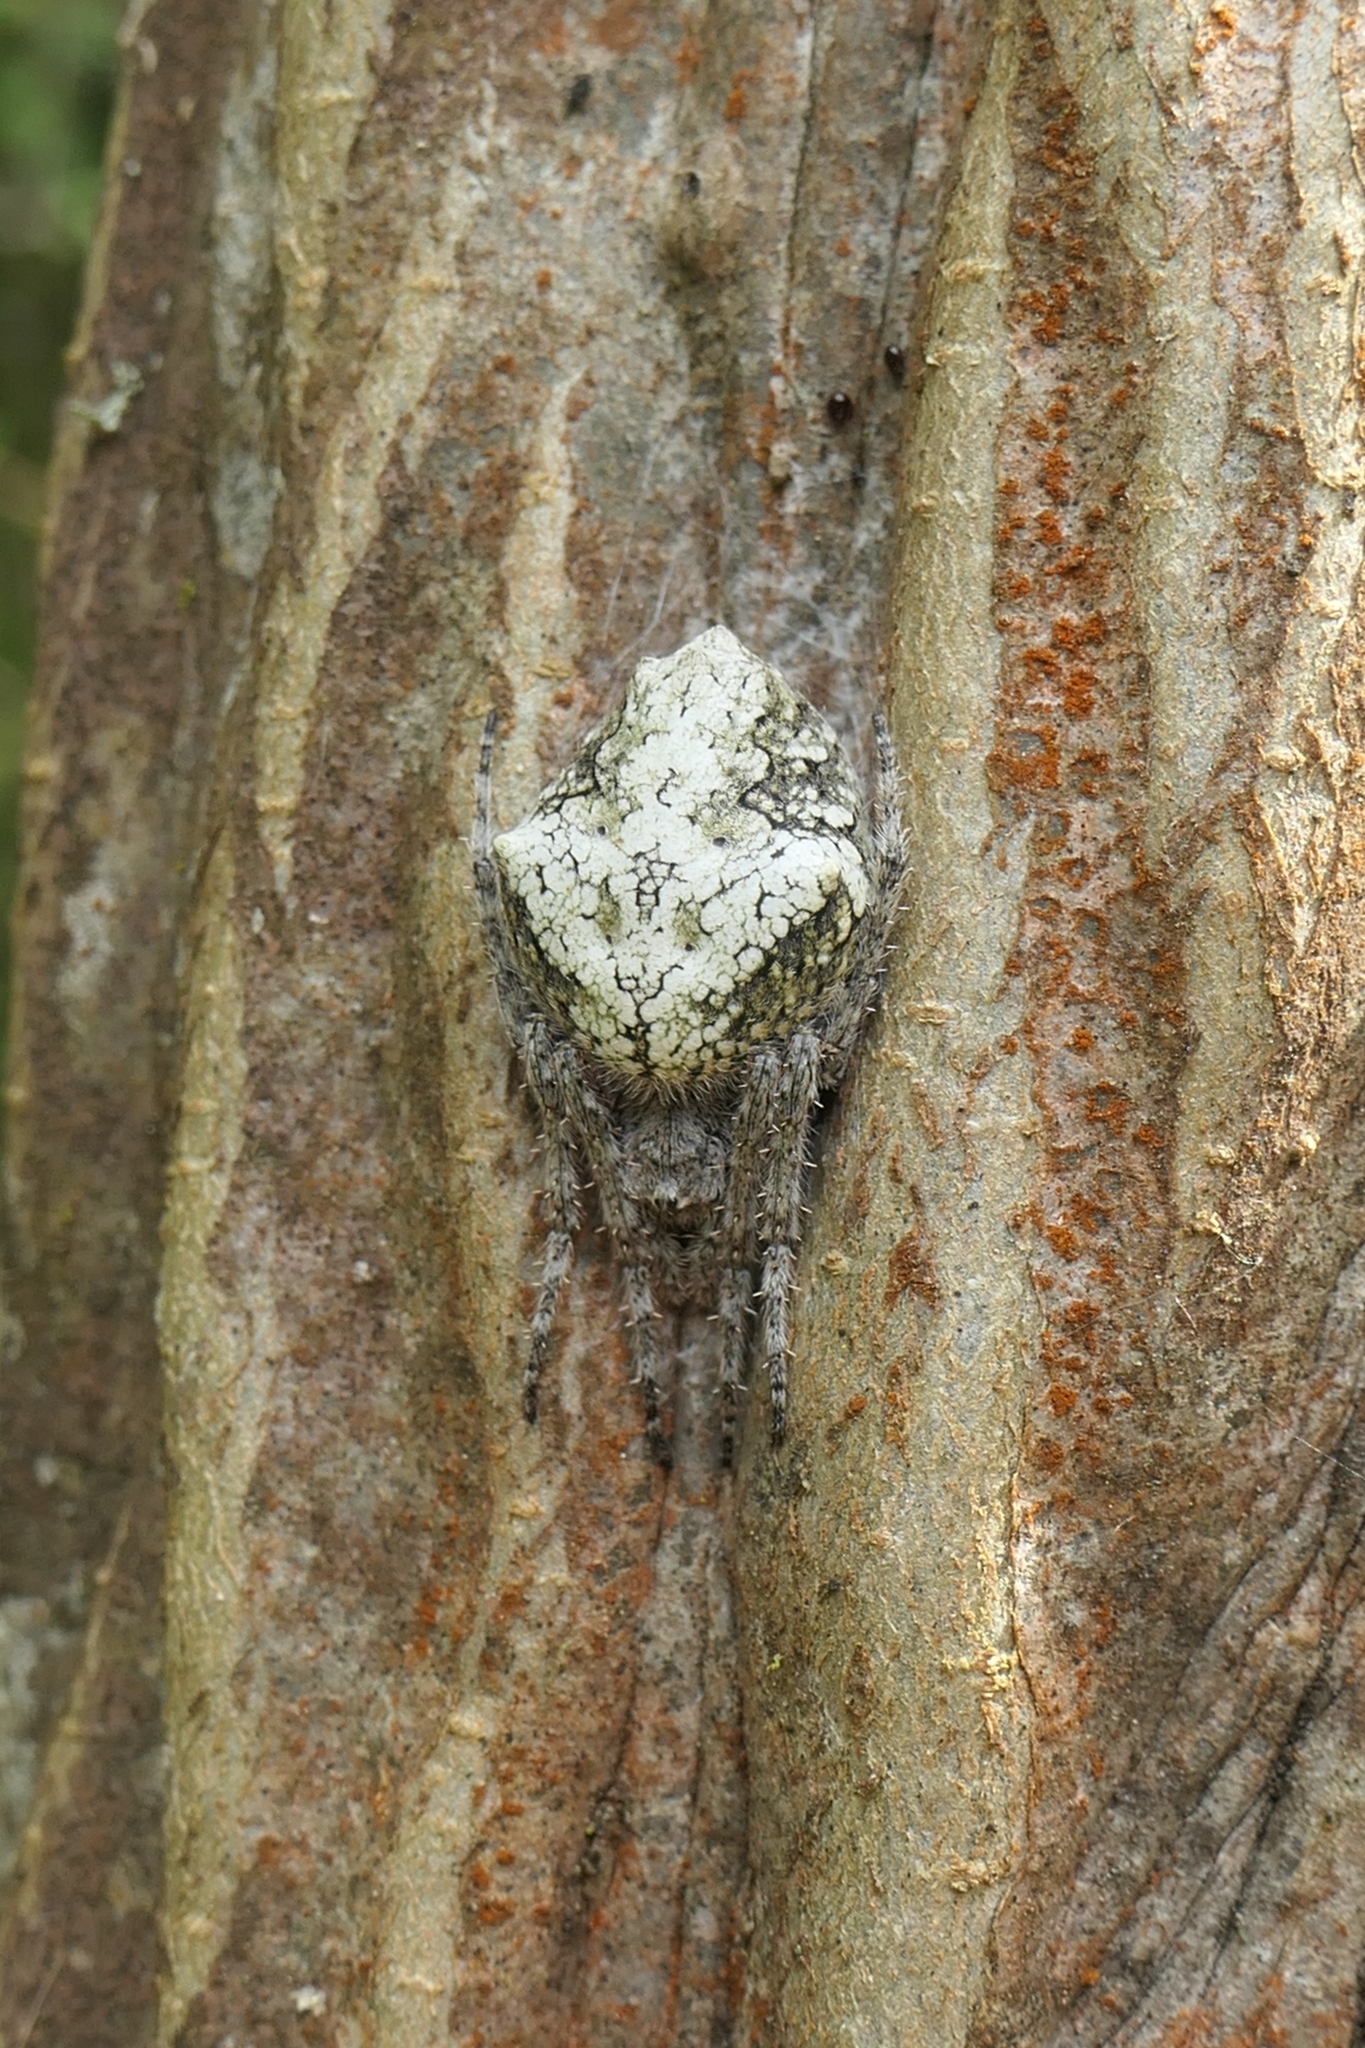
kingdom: Animalia
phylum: Arthropoda
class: Arachnida
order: Araneae
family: Araneidae
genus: Eriophora
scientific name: Eriophora pustulosa
